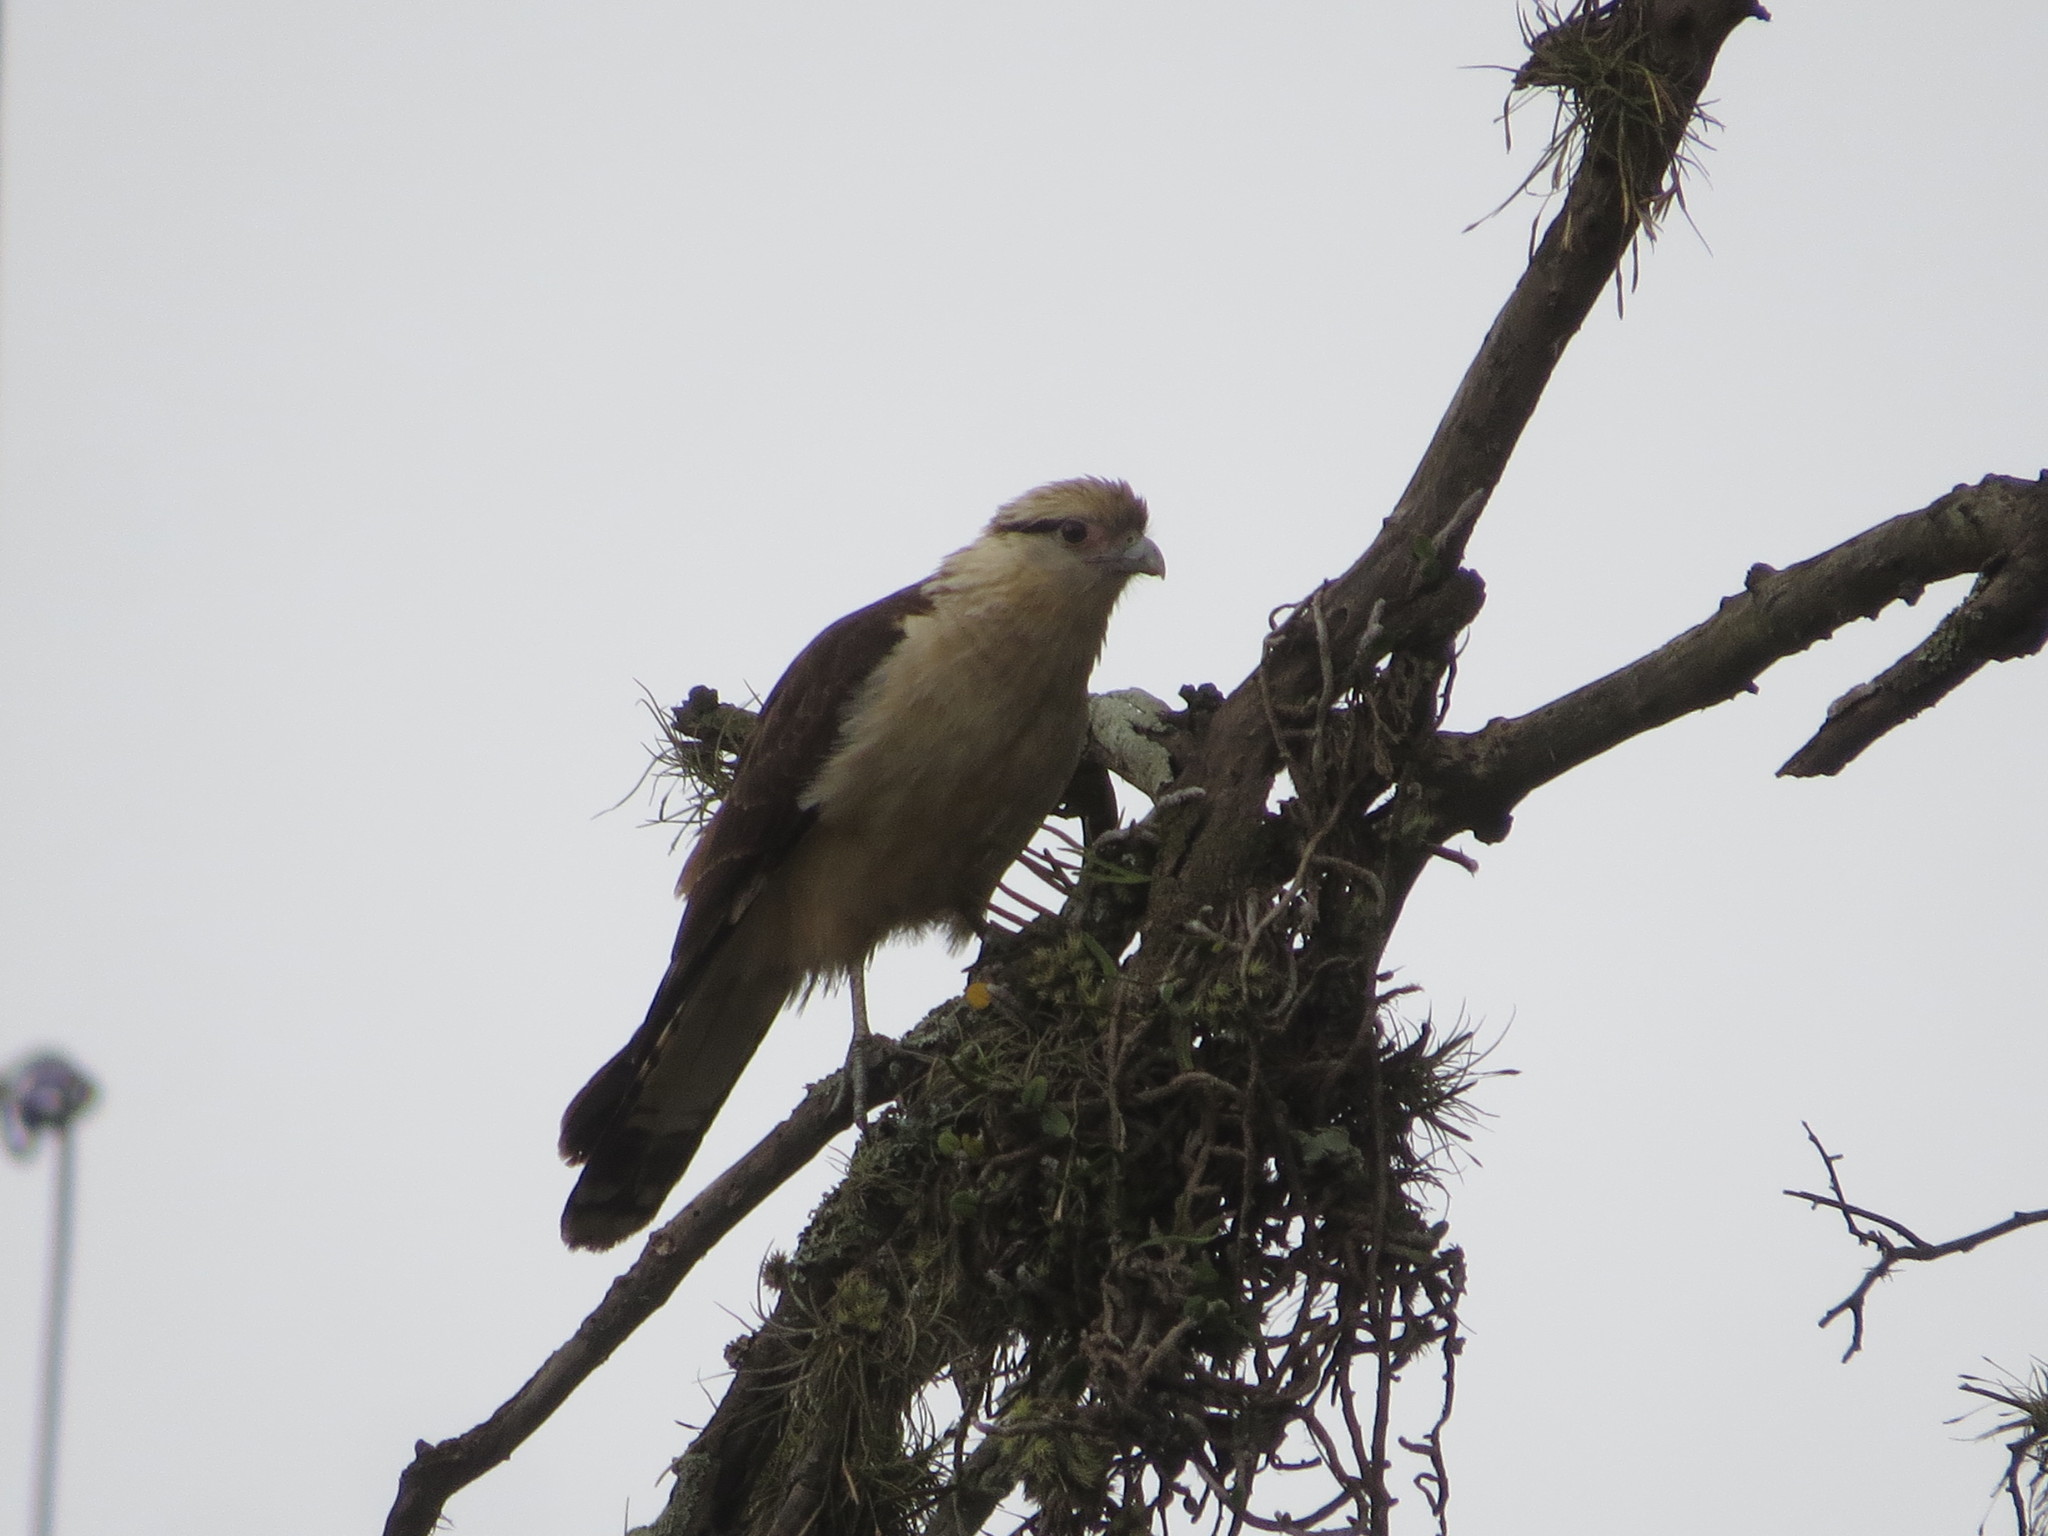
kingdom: Animalia
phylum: Chordata
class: Aves
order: Falconiformes
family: Falconidae
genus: Daptrius
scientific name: Daptrius
